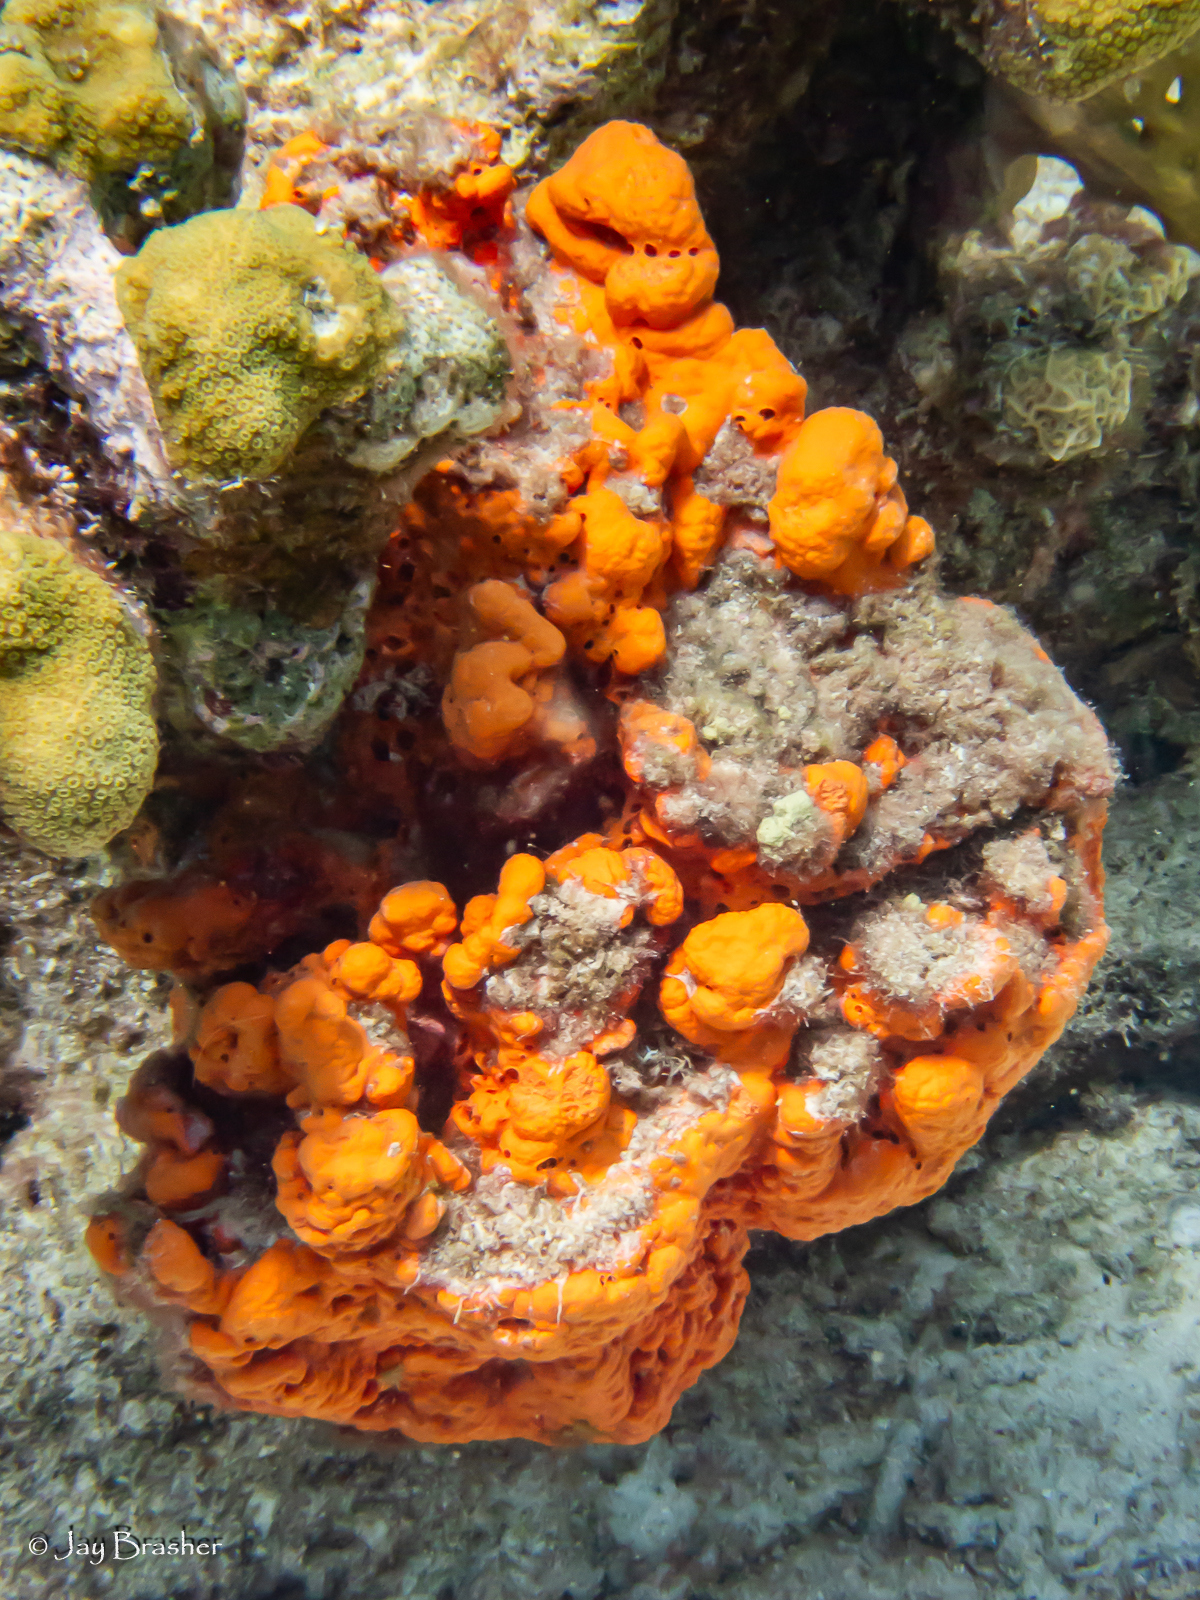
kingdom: Animalia
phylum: Porifera
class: Demospongiae
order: Agelasida
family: Agelasidae
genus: Agelas
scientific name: Agelas clathrodes
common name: Orange elephant ear sponge
